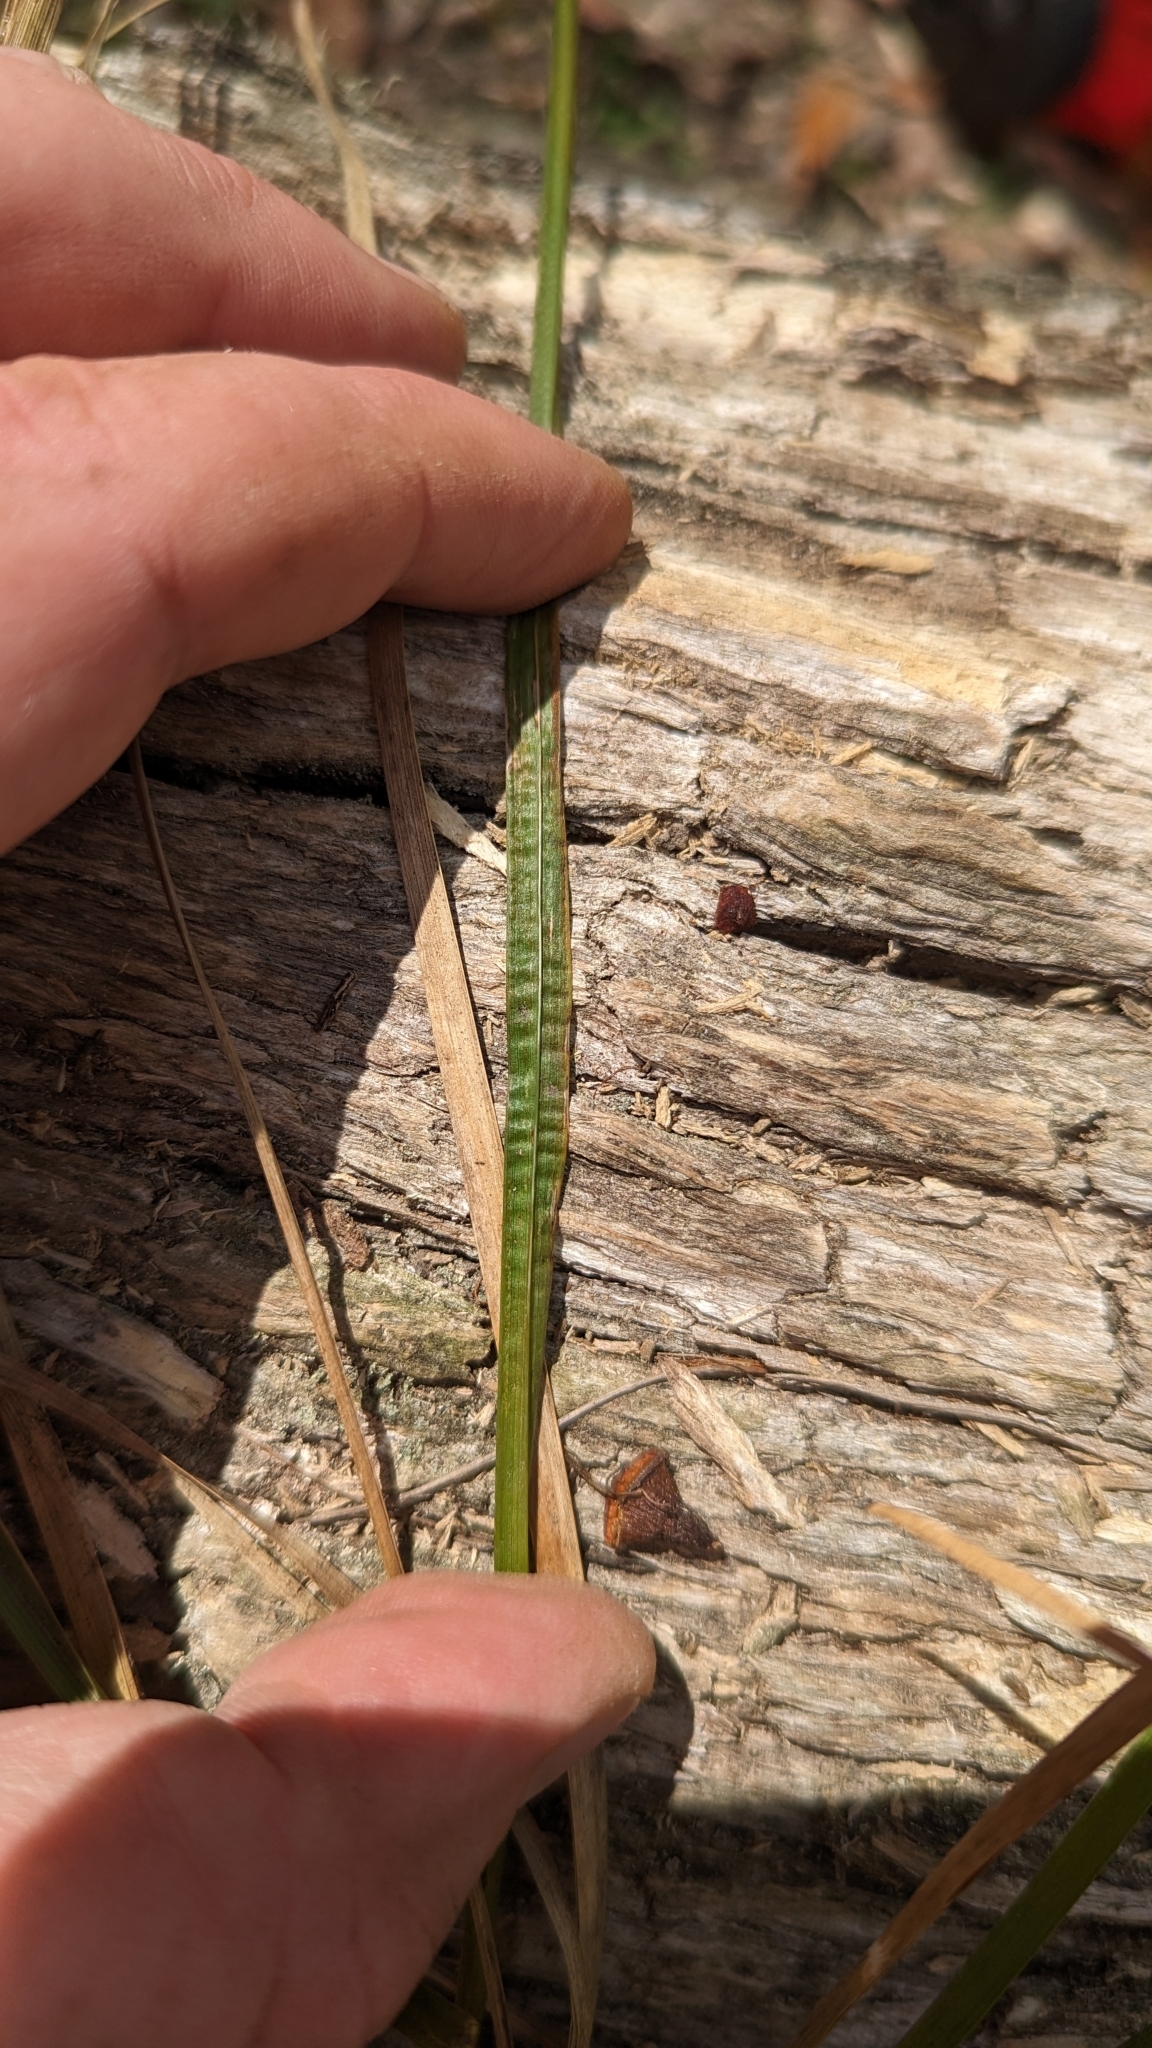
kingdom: Plantae
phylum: Tracheophyta
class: Liliopsida
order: Poales
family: Poaceae
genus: Axonopus
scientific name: Axonopus fissifolius
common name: Common carpetgrass
